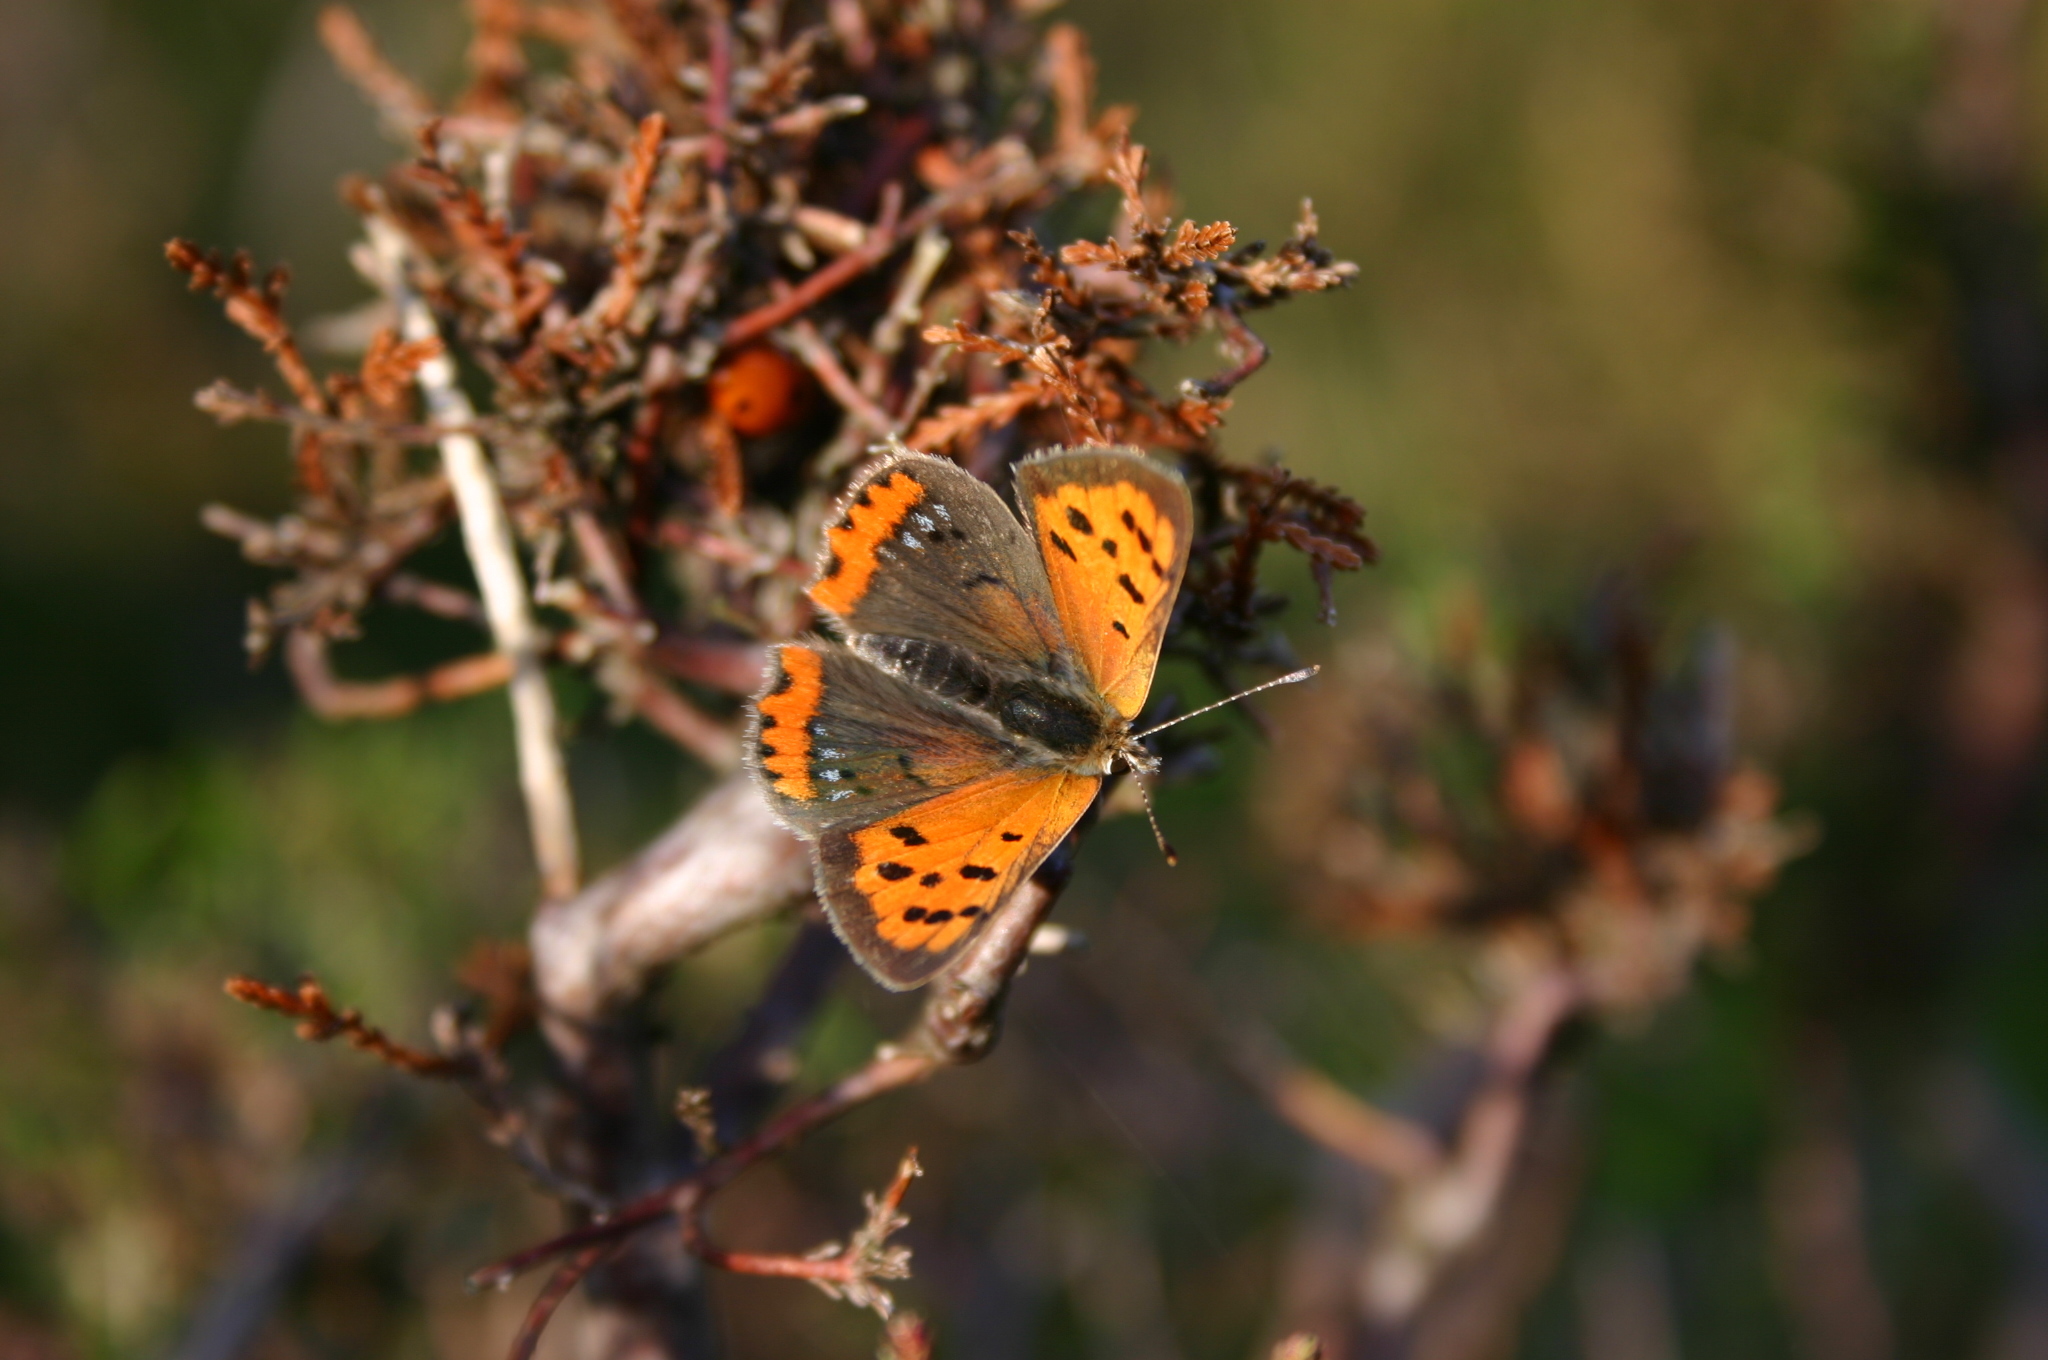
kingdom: Animalia
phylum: Arthropoda
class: Insecta
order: Lepidoptera
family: Lycaenidae
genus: Lycaena
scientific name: Lycaena phlaeas
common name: Small copper
